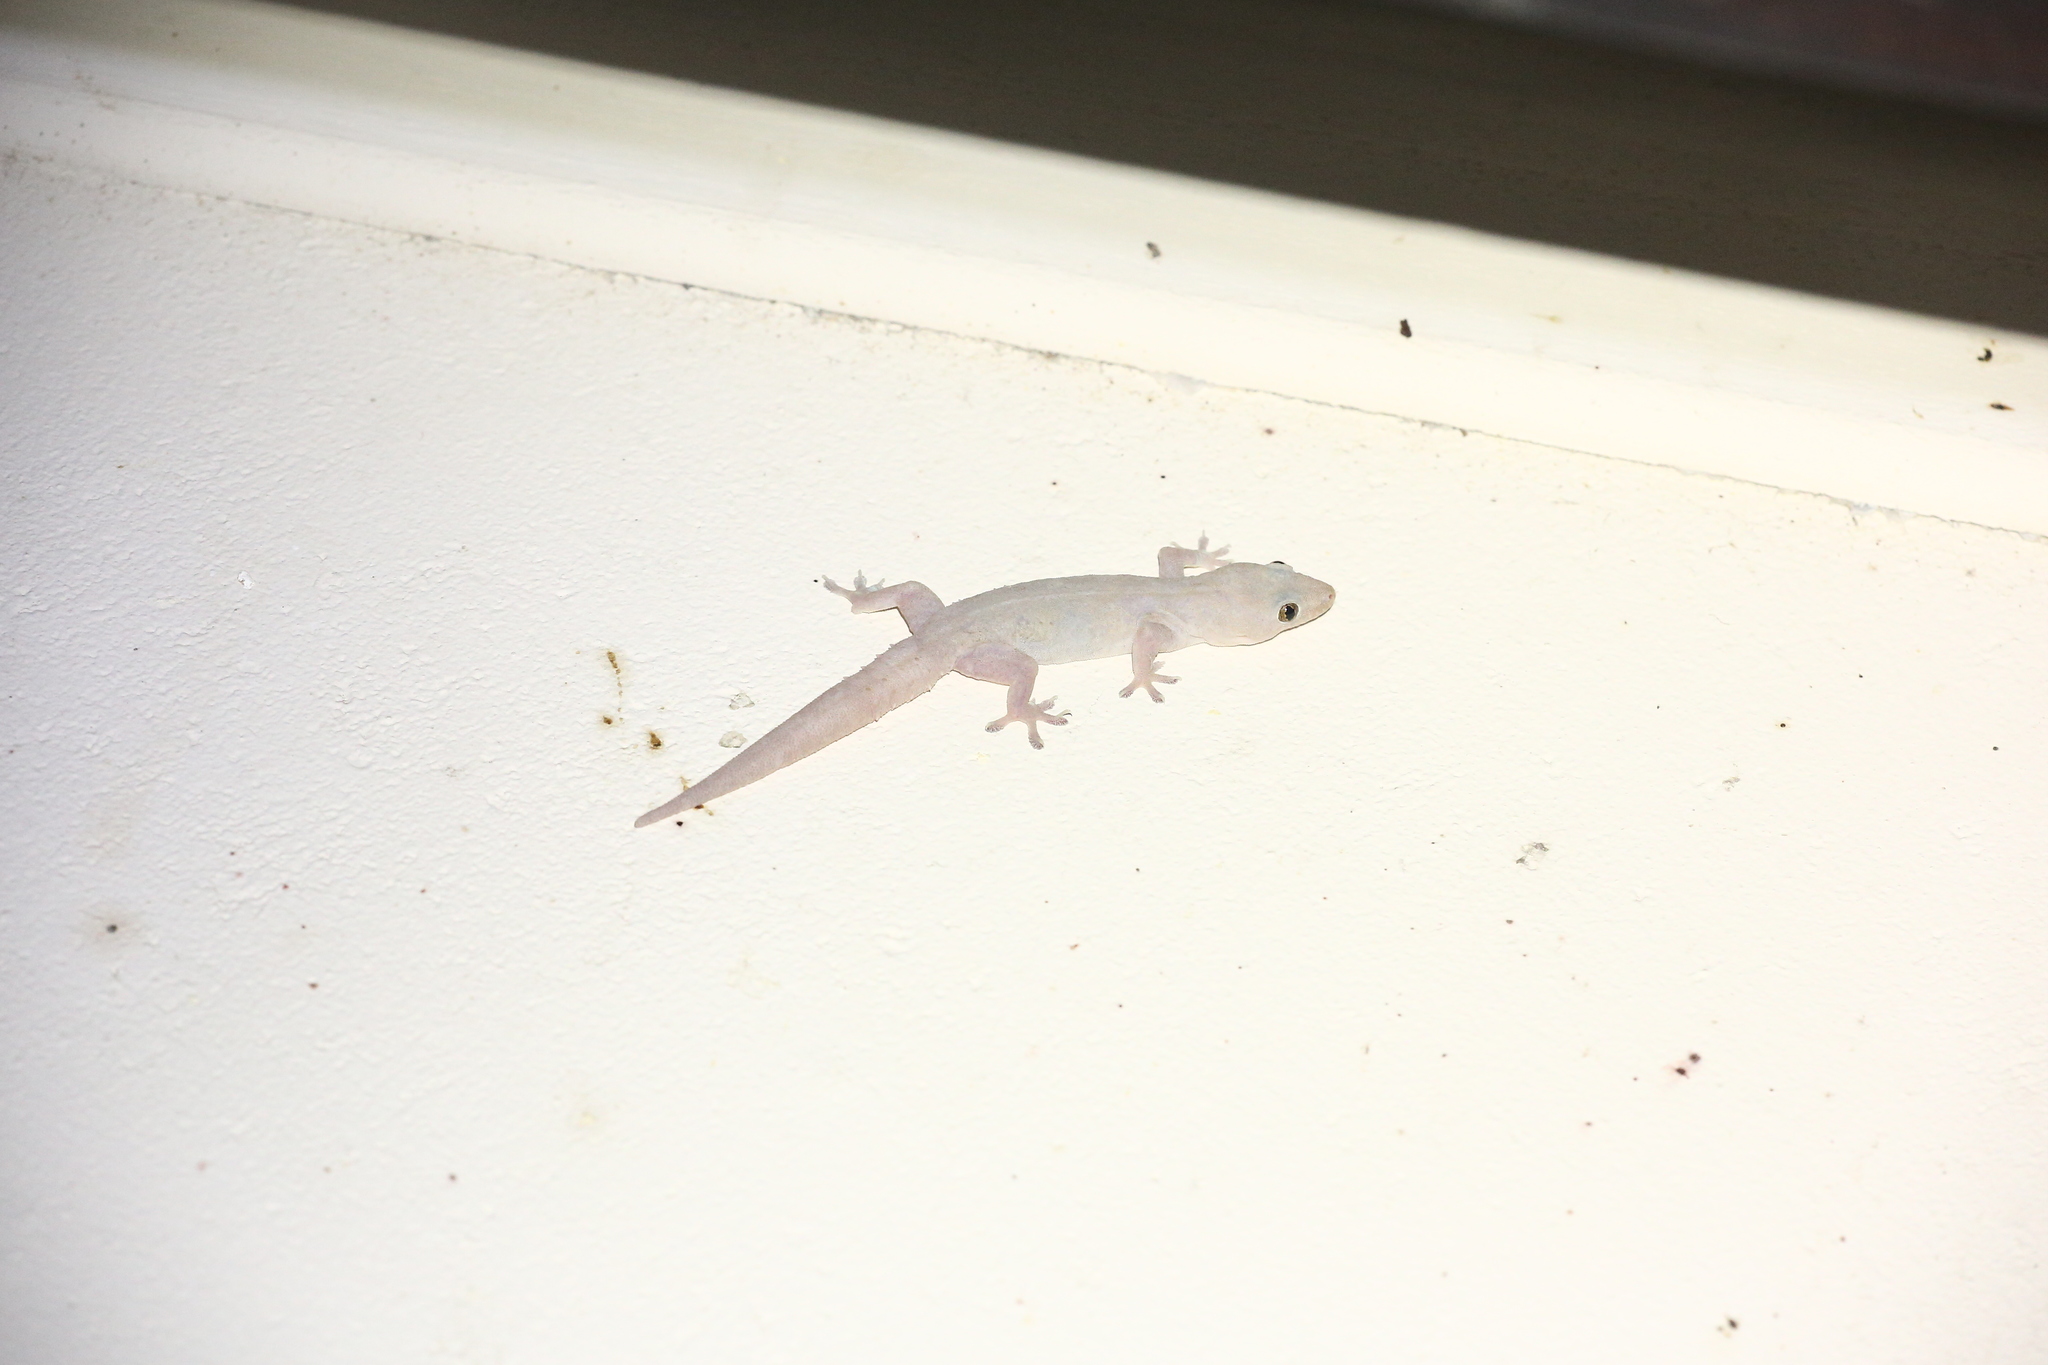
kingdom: Animalia
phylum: Chordata
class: Squamata
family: Gekkonidae
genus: Hemidactylus
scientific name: Hemidactylus frenatus
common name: Common house gecko
